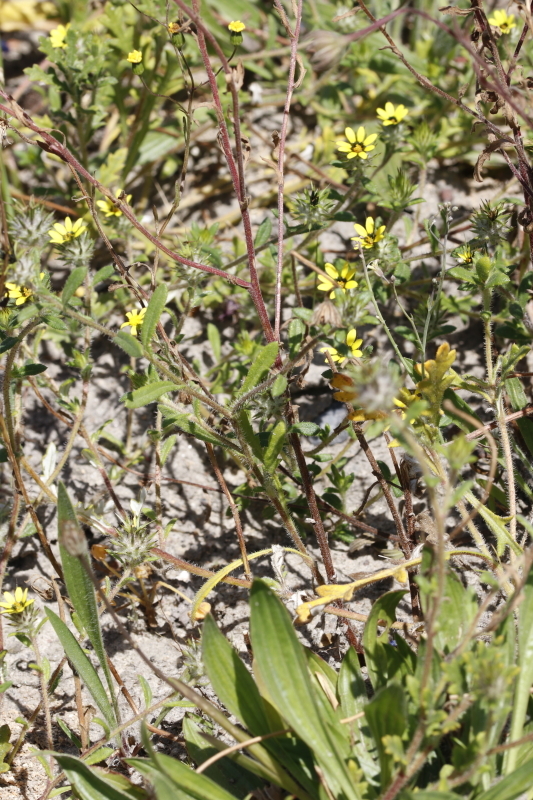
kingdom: Plantae
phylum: Tracheophyta
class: Magnoliopsida
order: Asterales
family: Asteraceae
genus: Gorteria
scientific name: Gorteria personata
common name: Gorteria
